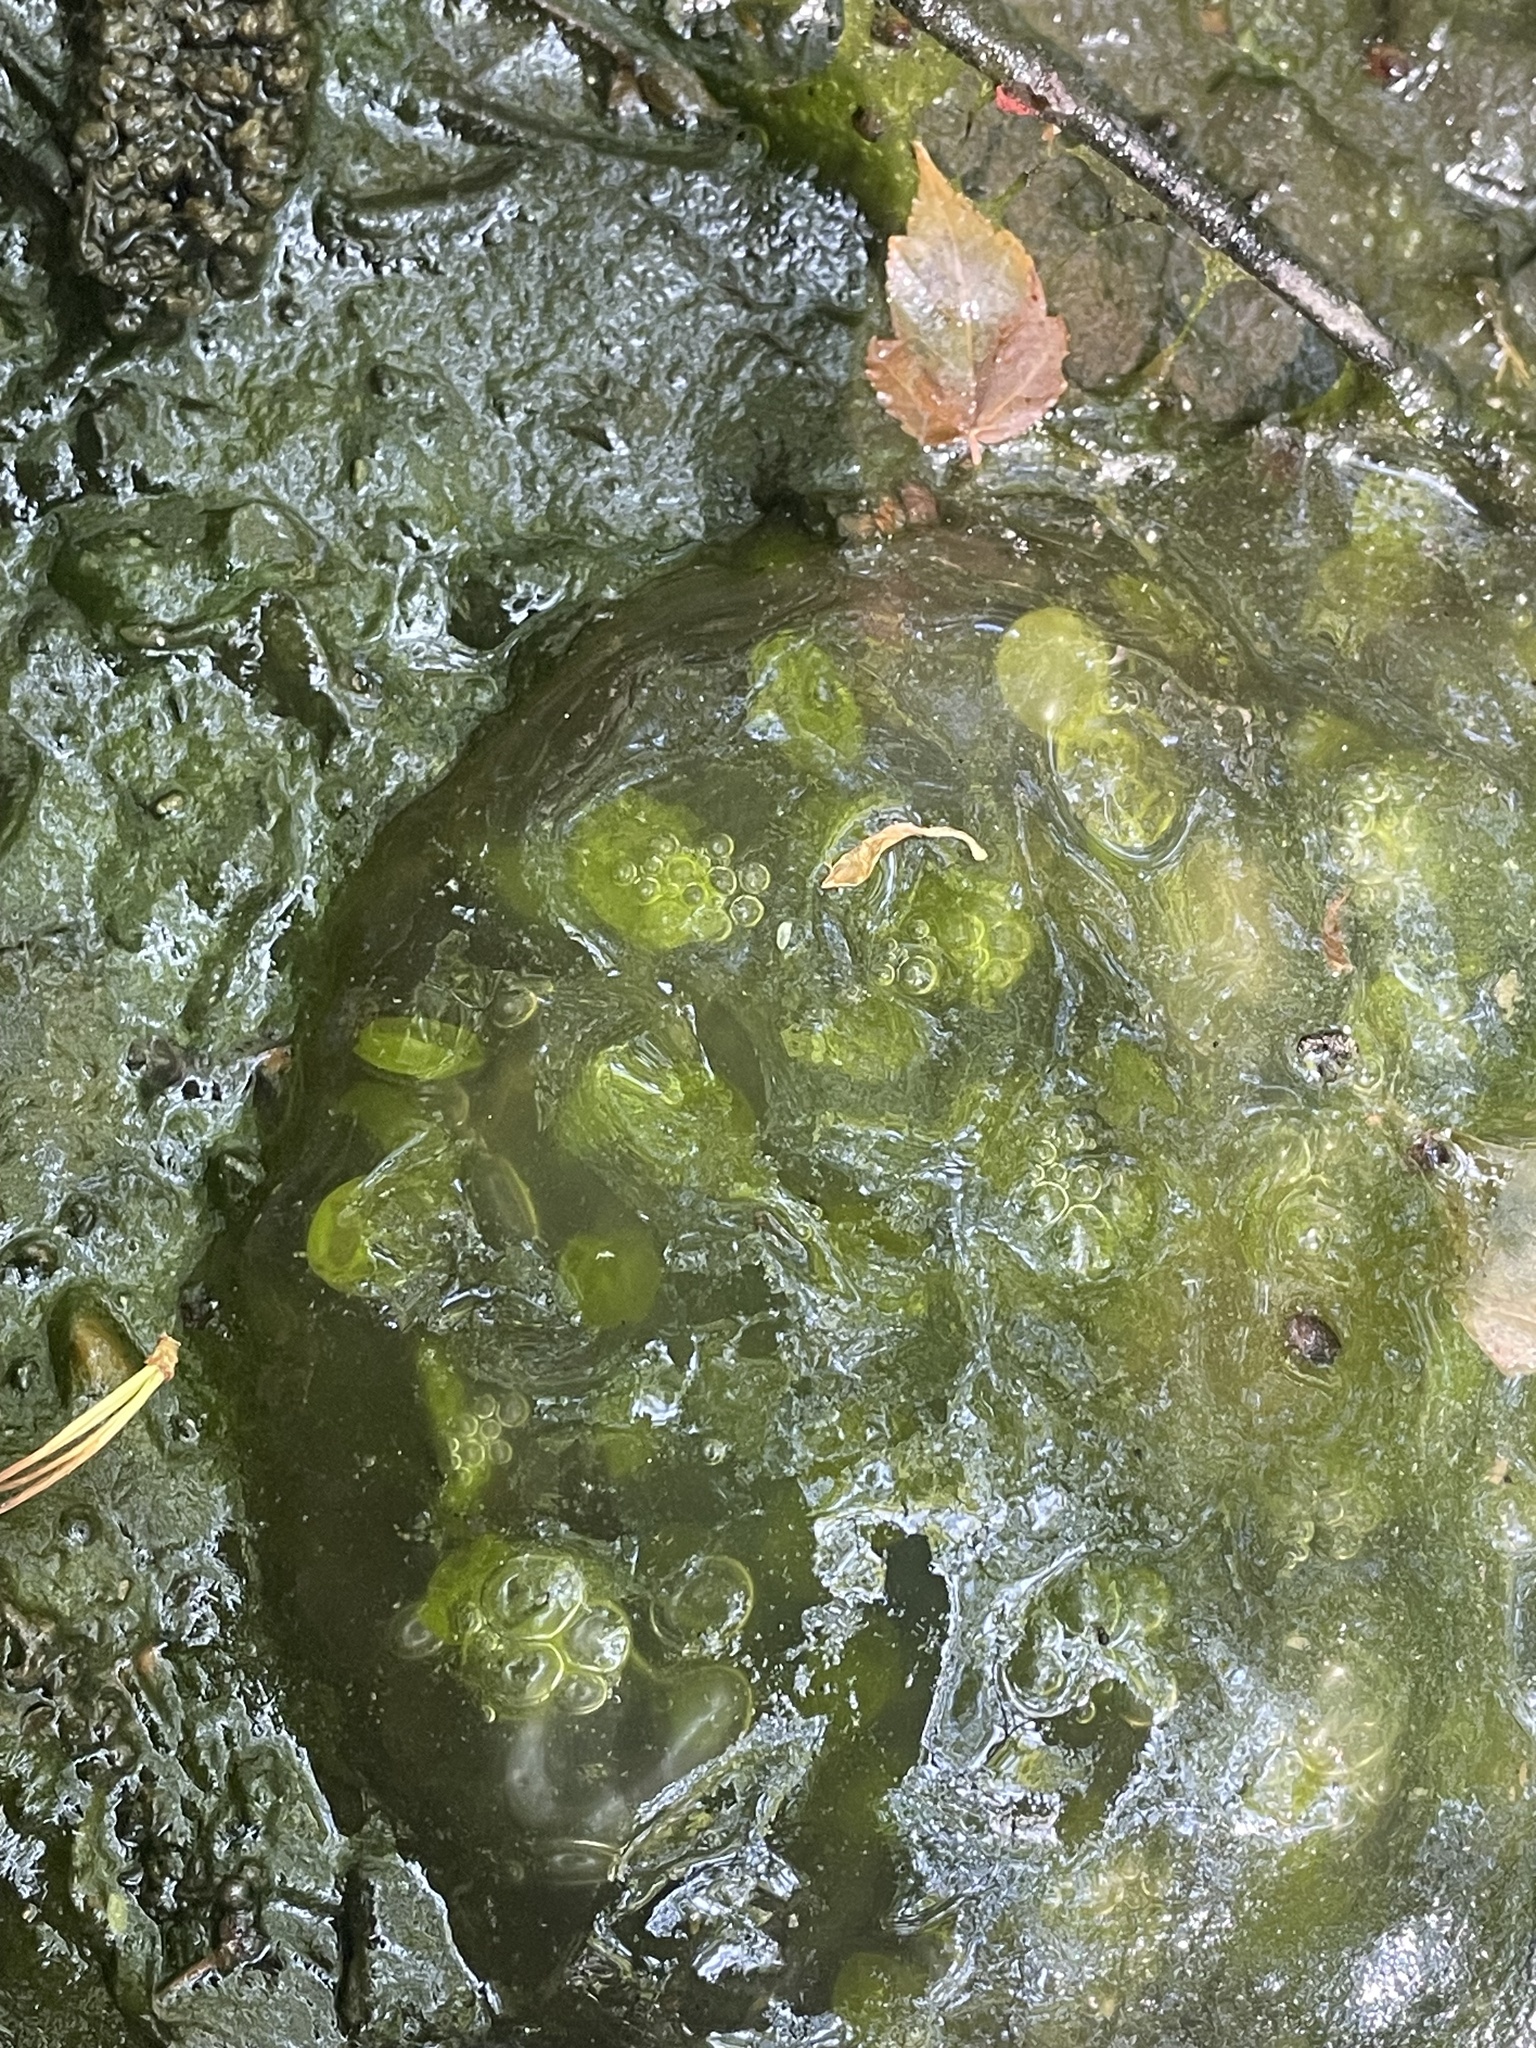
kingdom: Animalia
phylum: Chordata
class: Amphibia
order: Caudata
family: Ambystomatidae
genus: Ambystoma
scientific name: Ambystoma maculatum
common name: Spotted salamander
